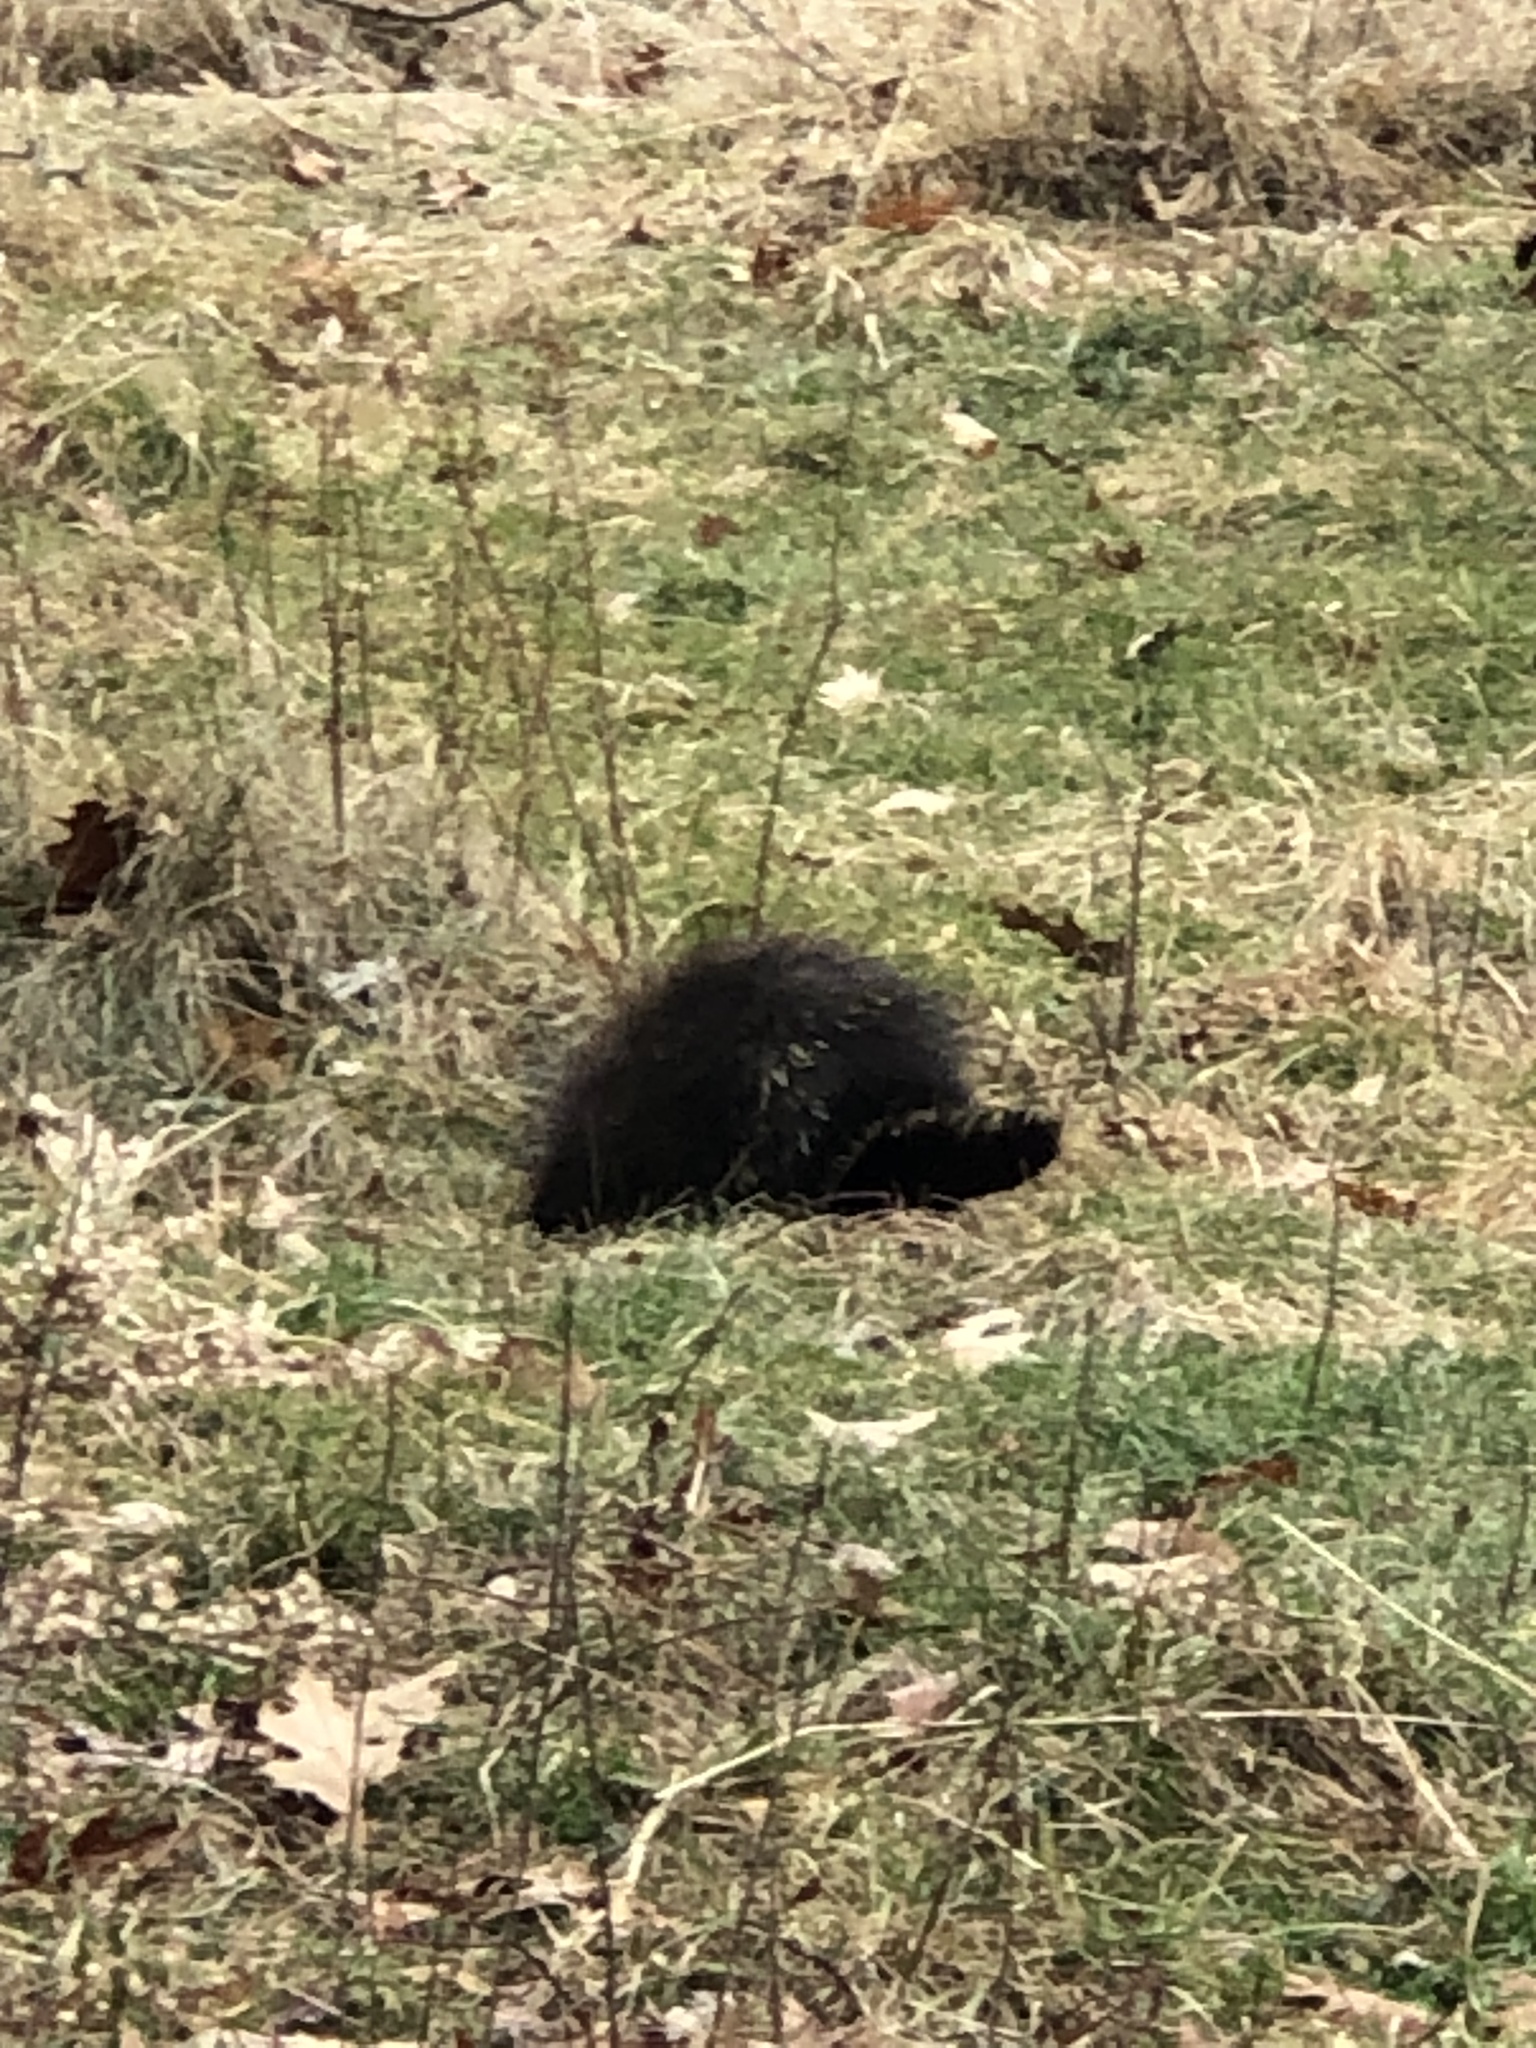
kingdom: Animalia
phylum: Chordata
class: Mammalia
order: Rodentia
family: Erethizontidae
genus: Erethizon
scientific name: Erethizon dorsatus
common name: North american porcupine
